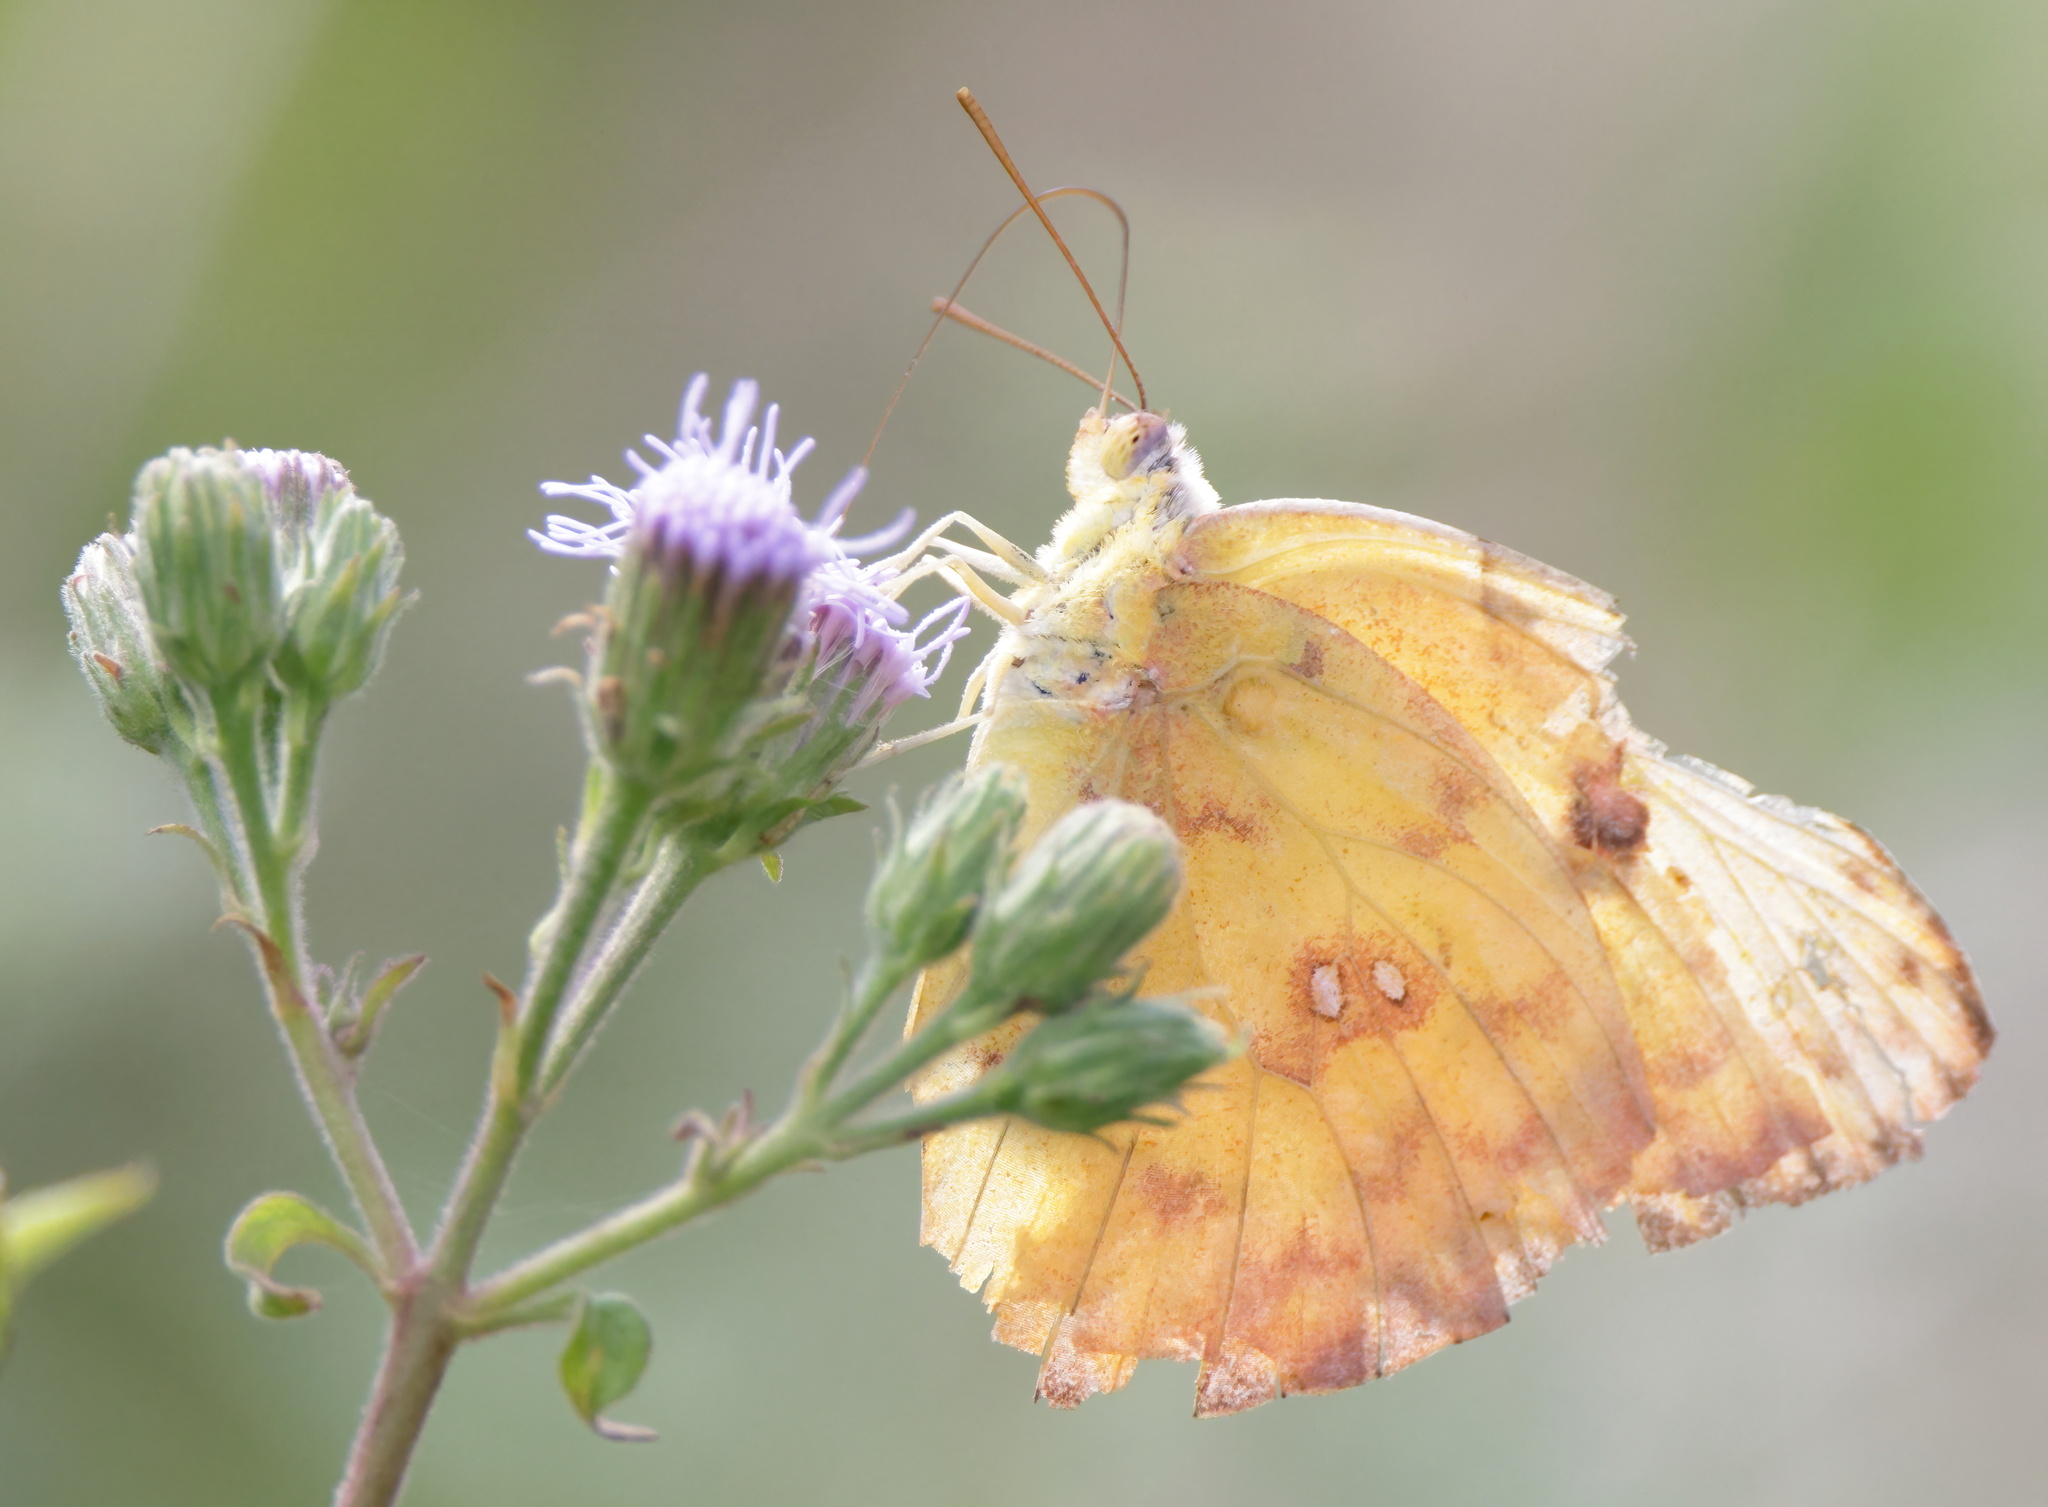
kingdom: Animalia
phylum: Arthropoda
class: Insecta
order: Lepidoptera
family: Pieridae
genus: Phoebis
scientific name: Phoebis sennae
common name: Cloudless sulphur
